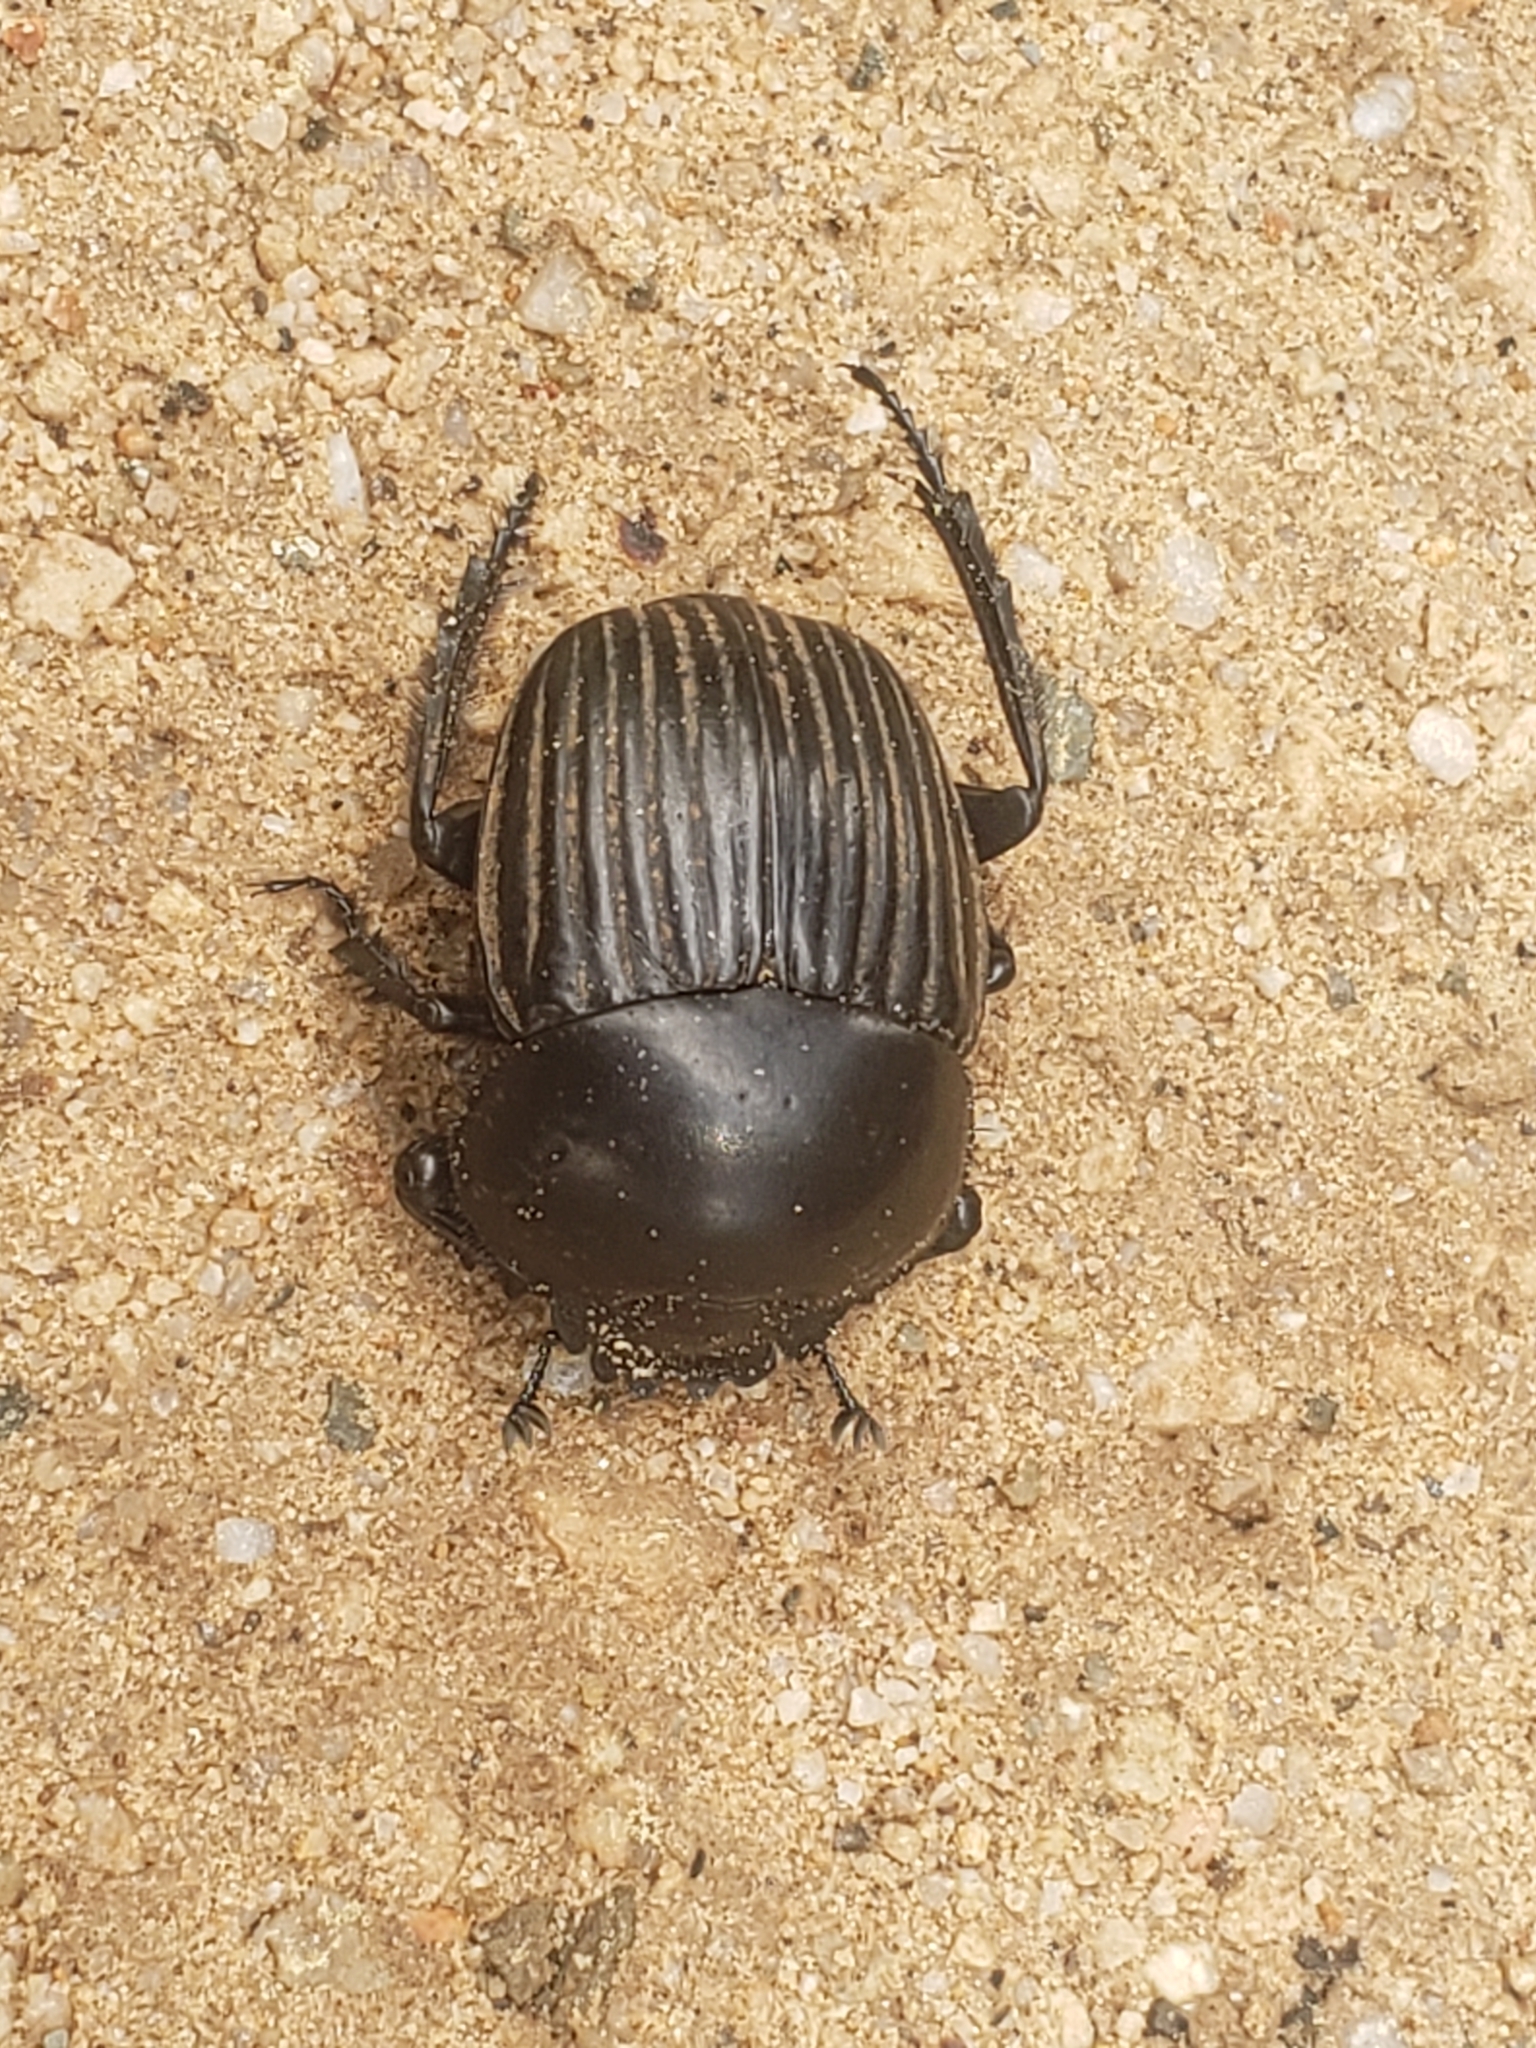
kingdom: Animalia
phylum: Arthropoda
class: Insecta
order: Coleoptera
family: Scarabaeidae
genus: Ateuchetus
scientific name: Ateuchetus laticollis
